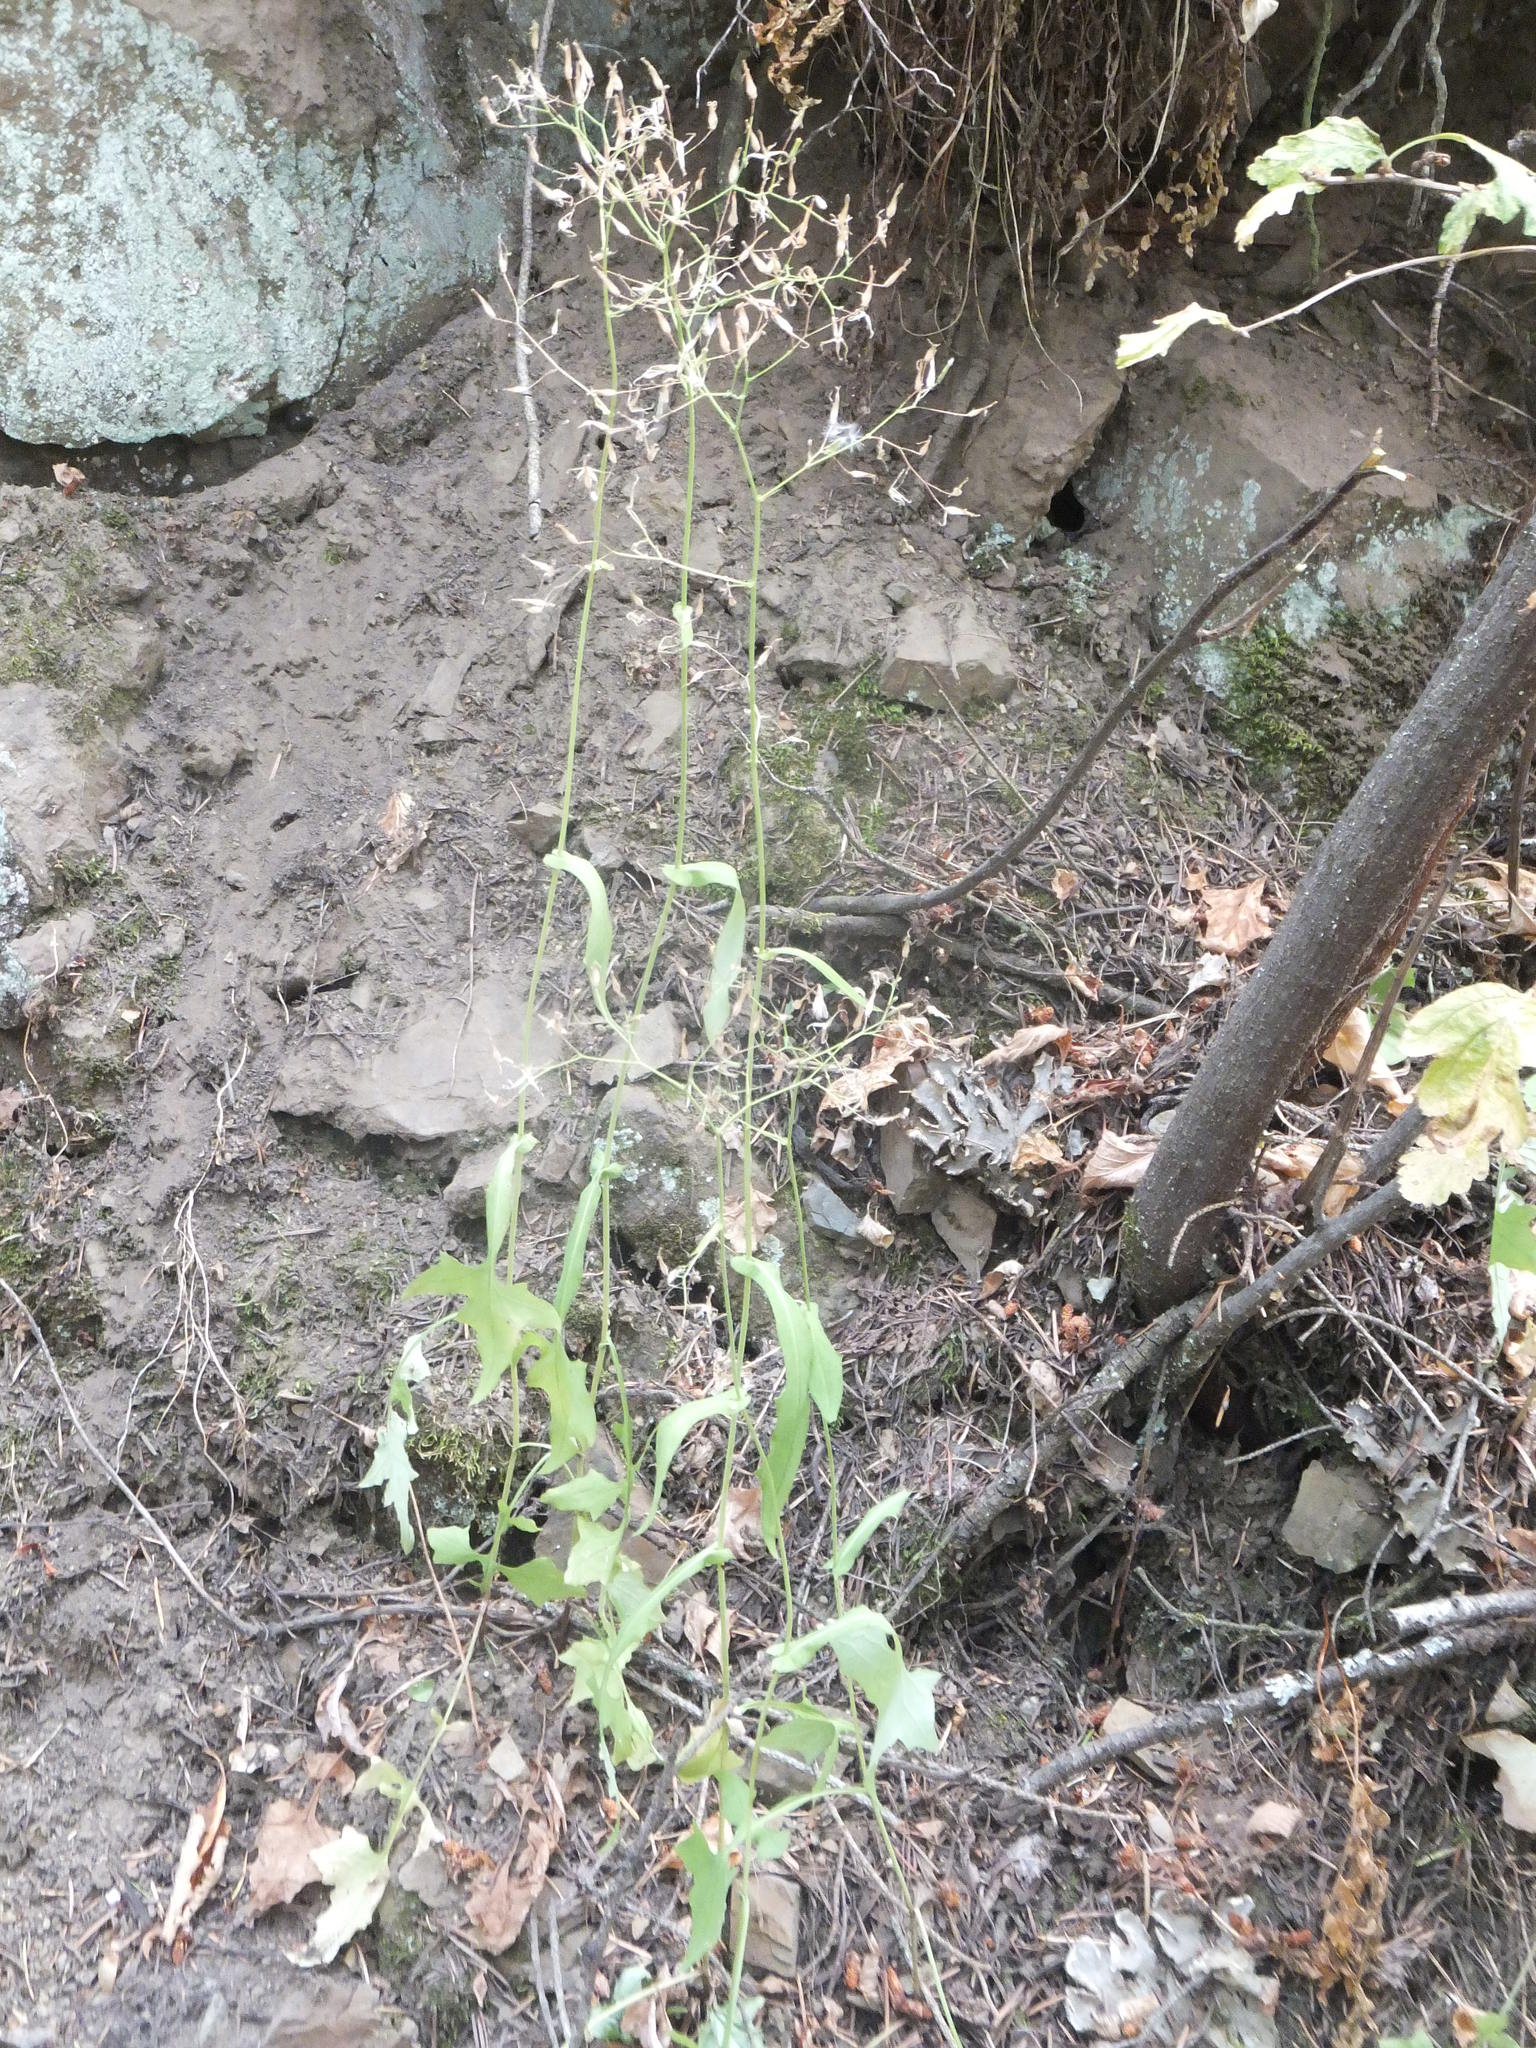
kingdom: Plantae
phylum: Tracheophyta
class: Magnoliopsida
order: Asterales
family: Asteraceae
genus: Mycelis
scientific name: Mycelis muralis
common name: Wall lettuce
